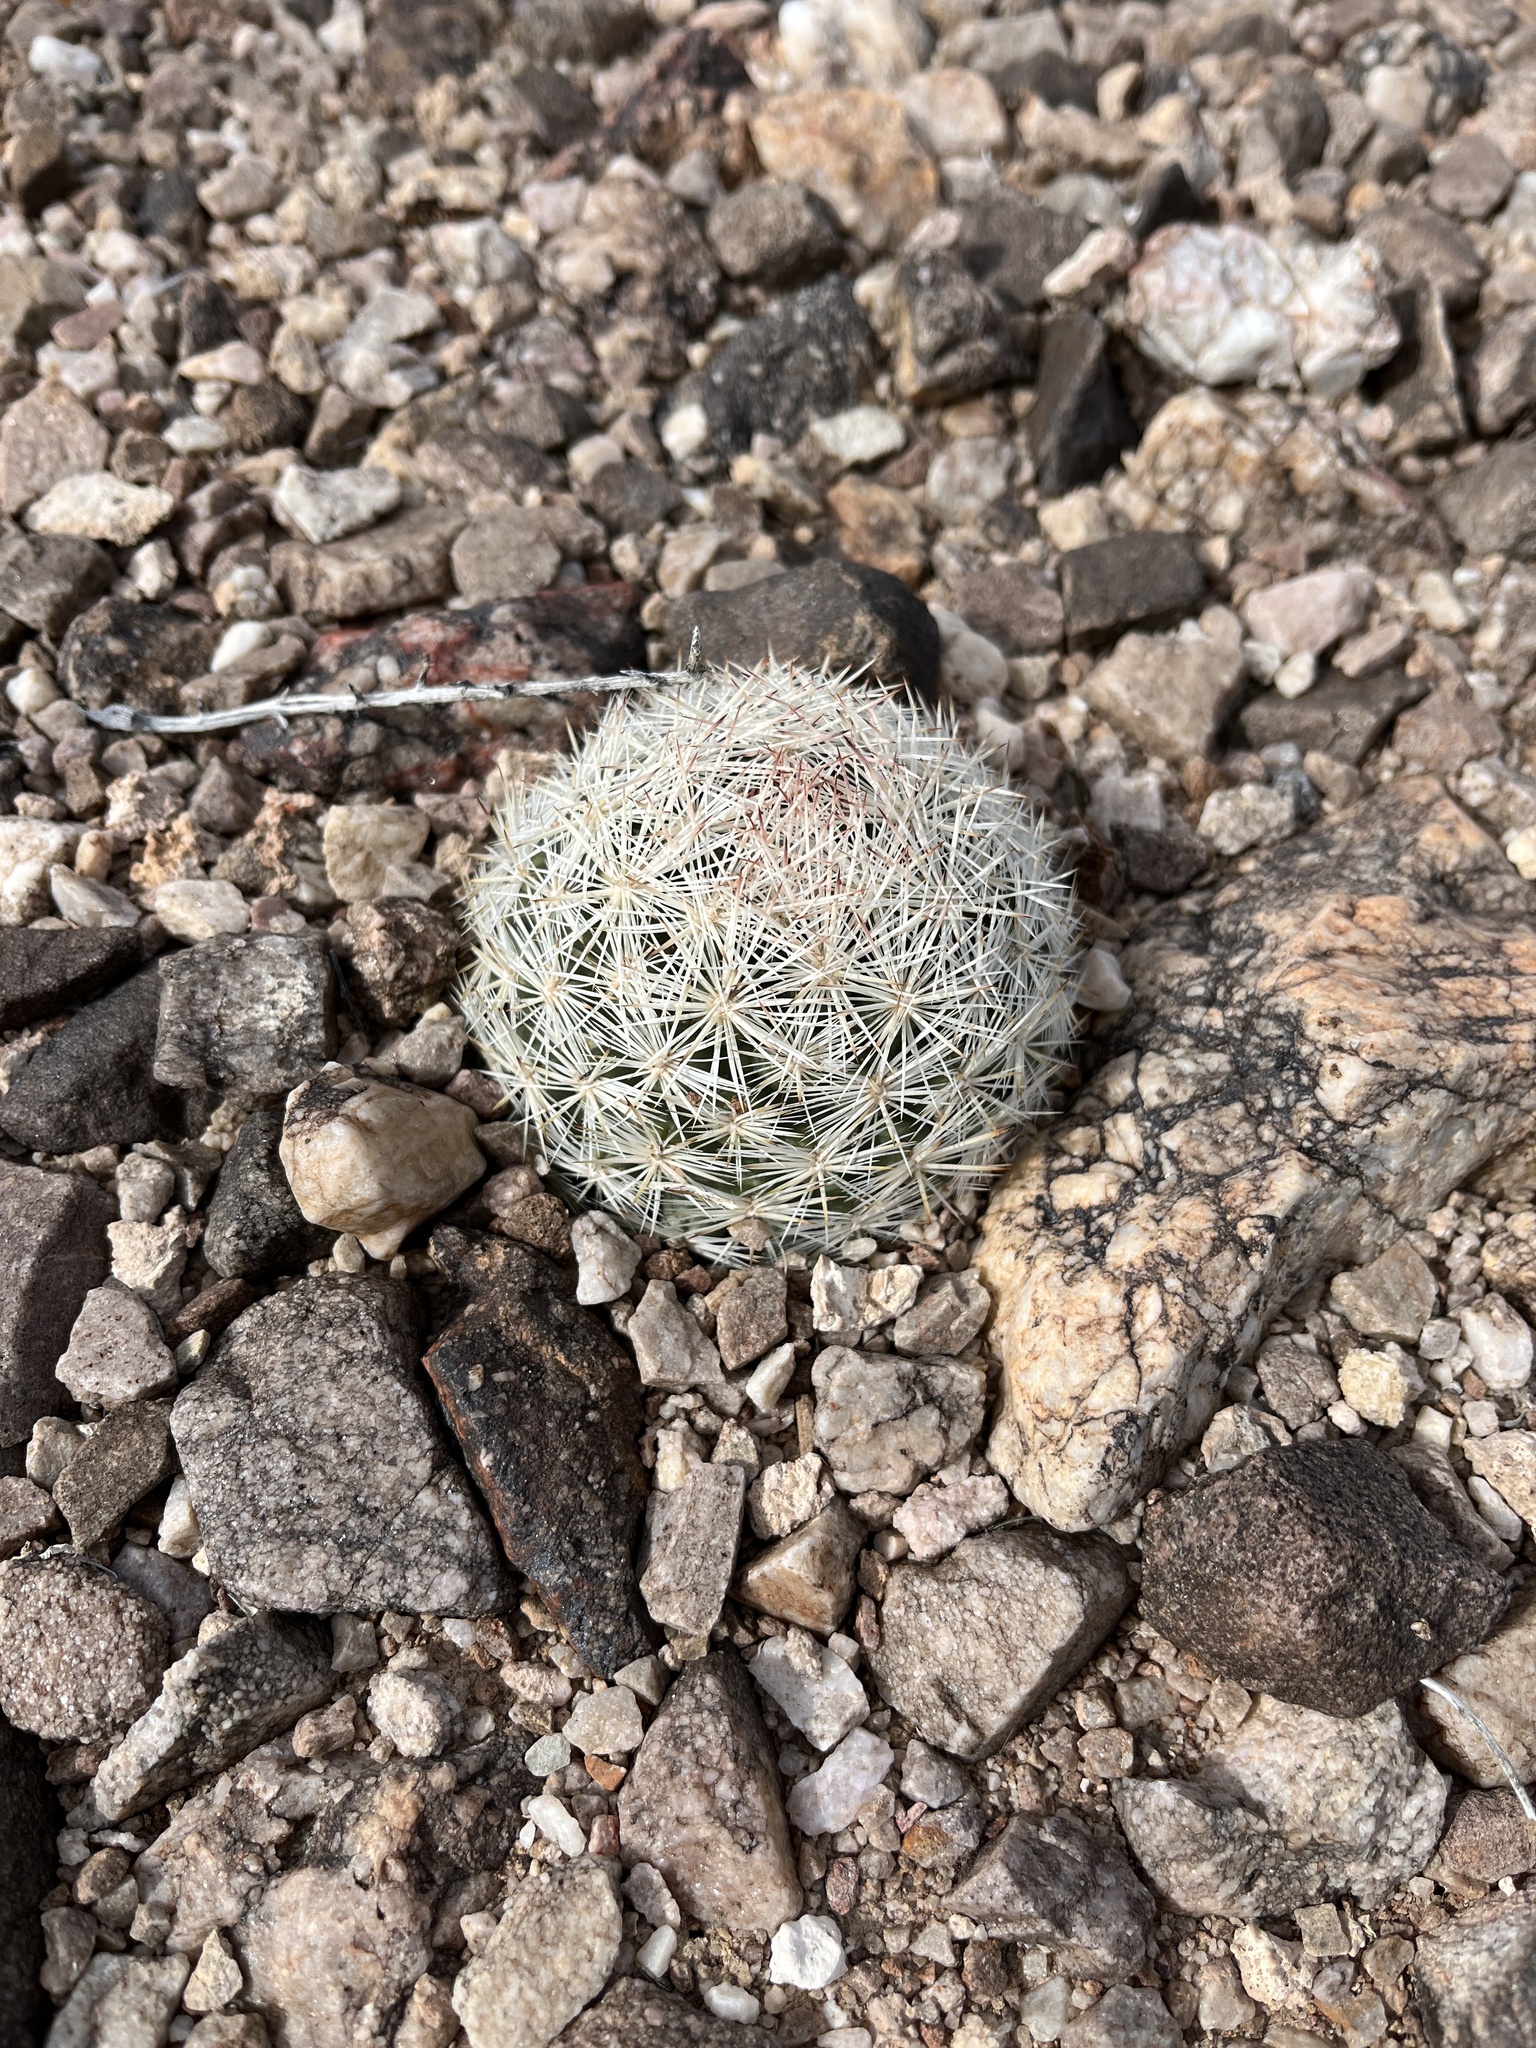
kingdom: Plantae
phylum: Tracheophyta
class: Magnoliopsida
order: Caryophyllales
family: Cactaceae
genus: Pelecyphora
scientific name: Pelecyphora dasyacantha
